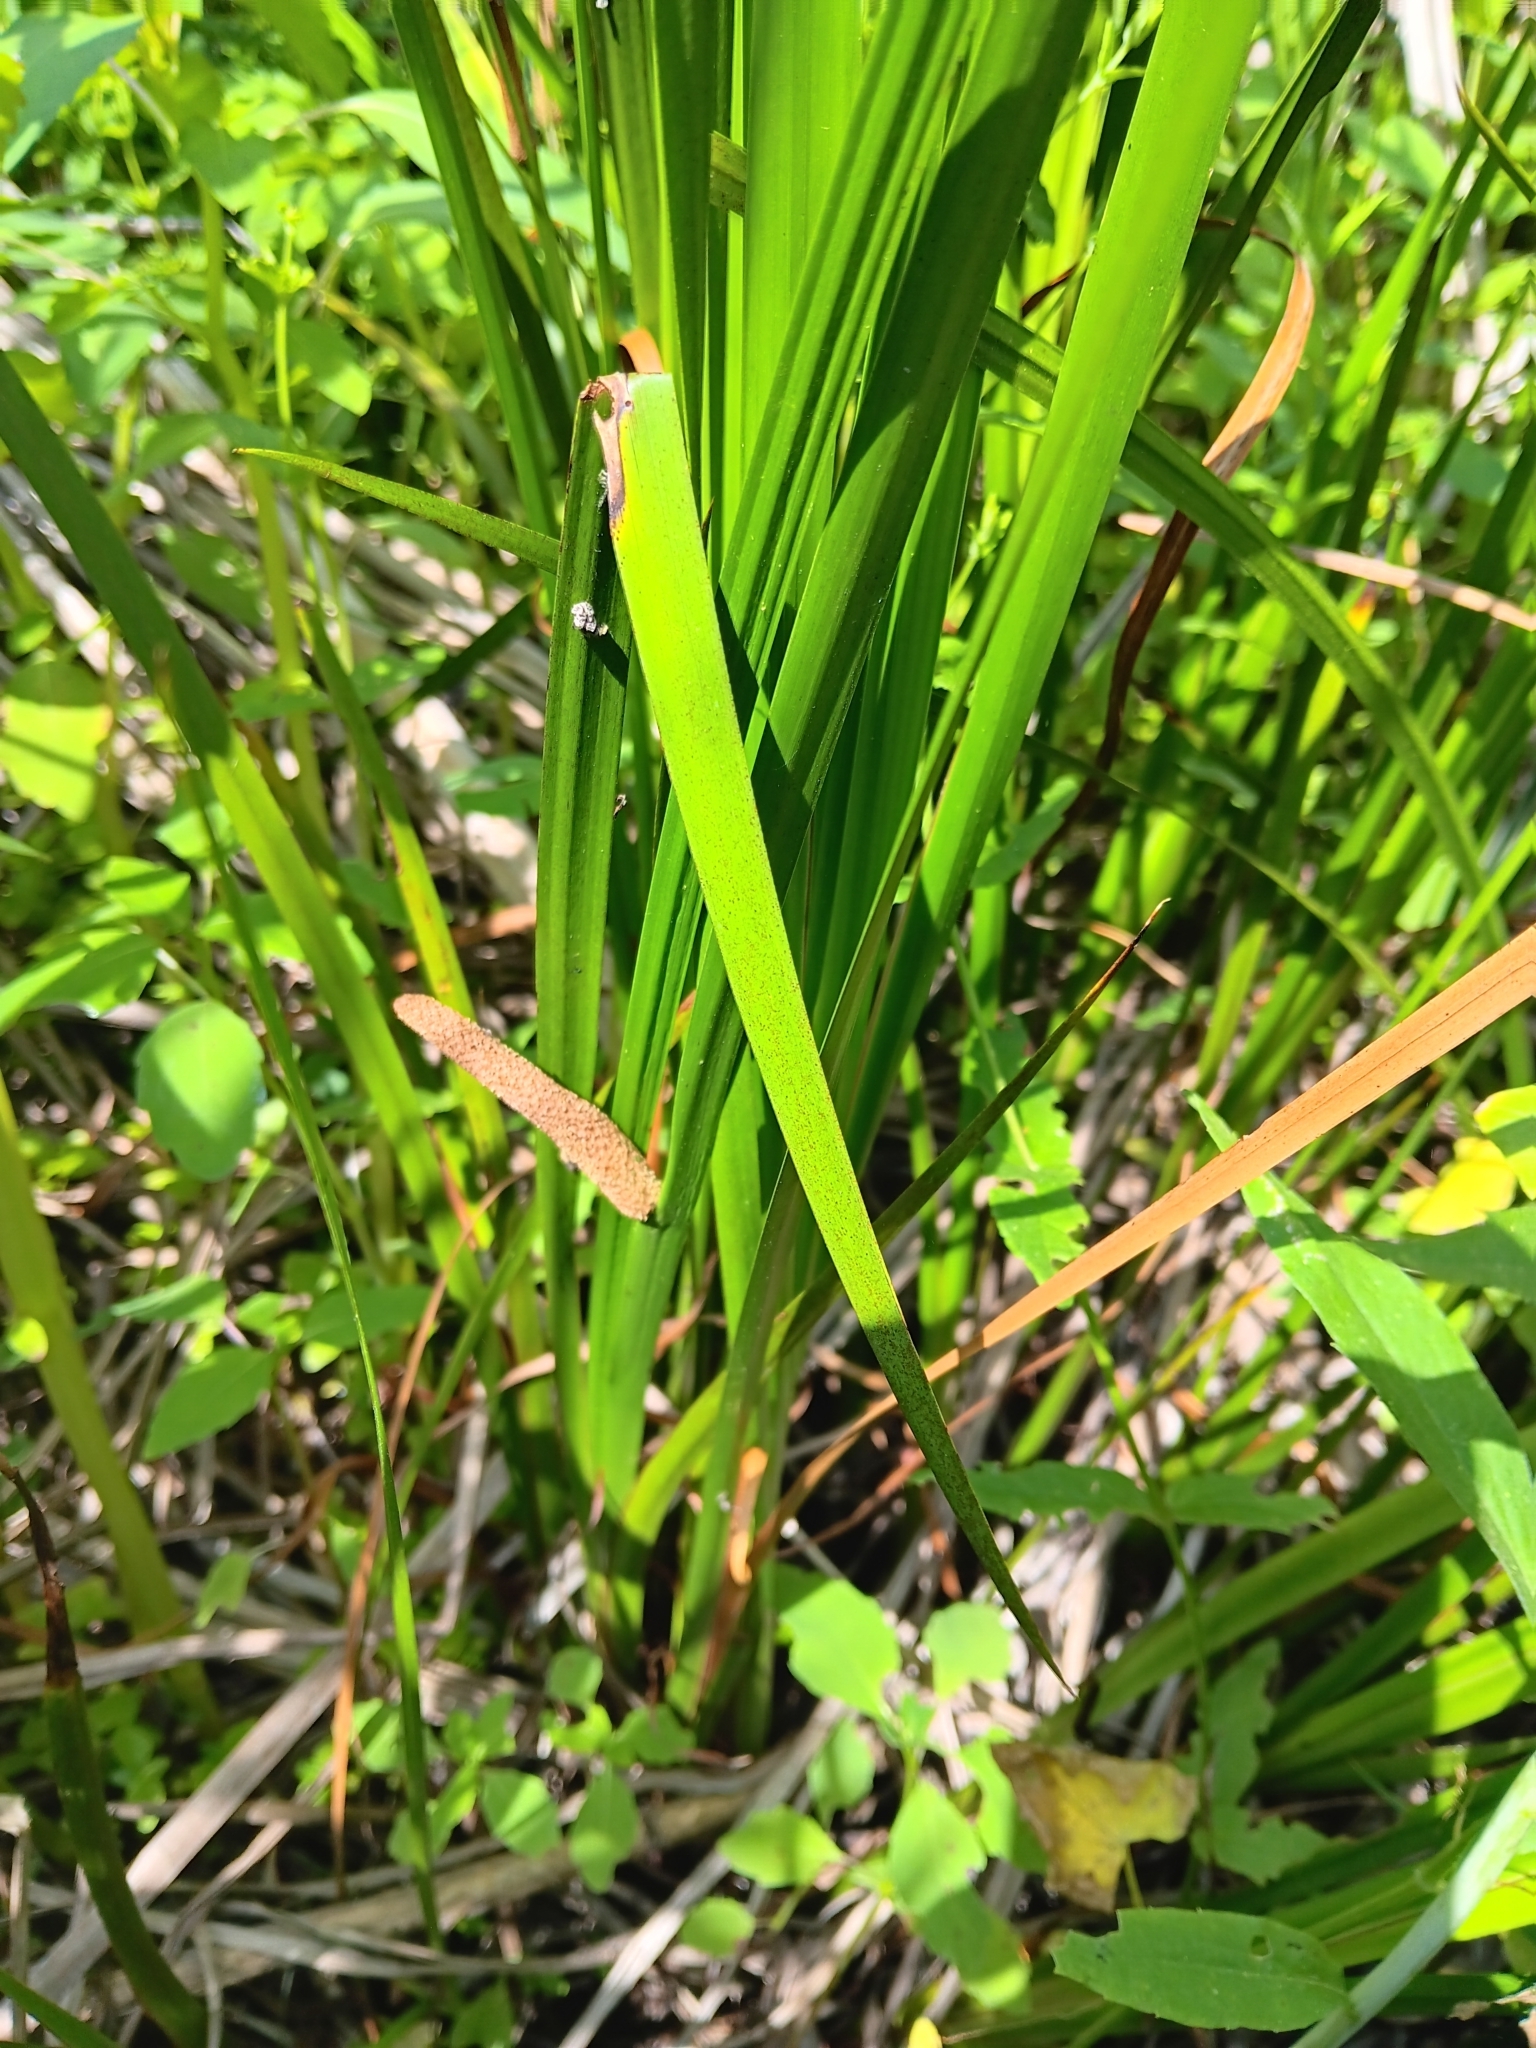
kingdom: Plantae
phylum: Tracheophyta
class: Liliopsida
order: Acorales
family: Acoraceae
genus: Acorus
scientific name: Acorus calamus
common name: Sweet-flag
